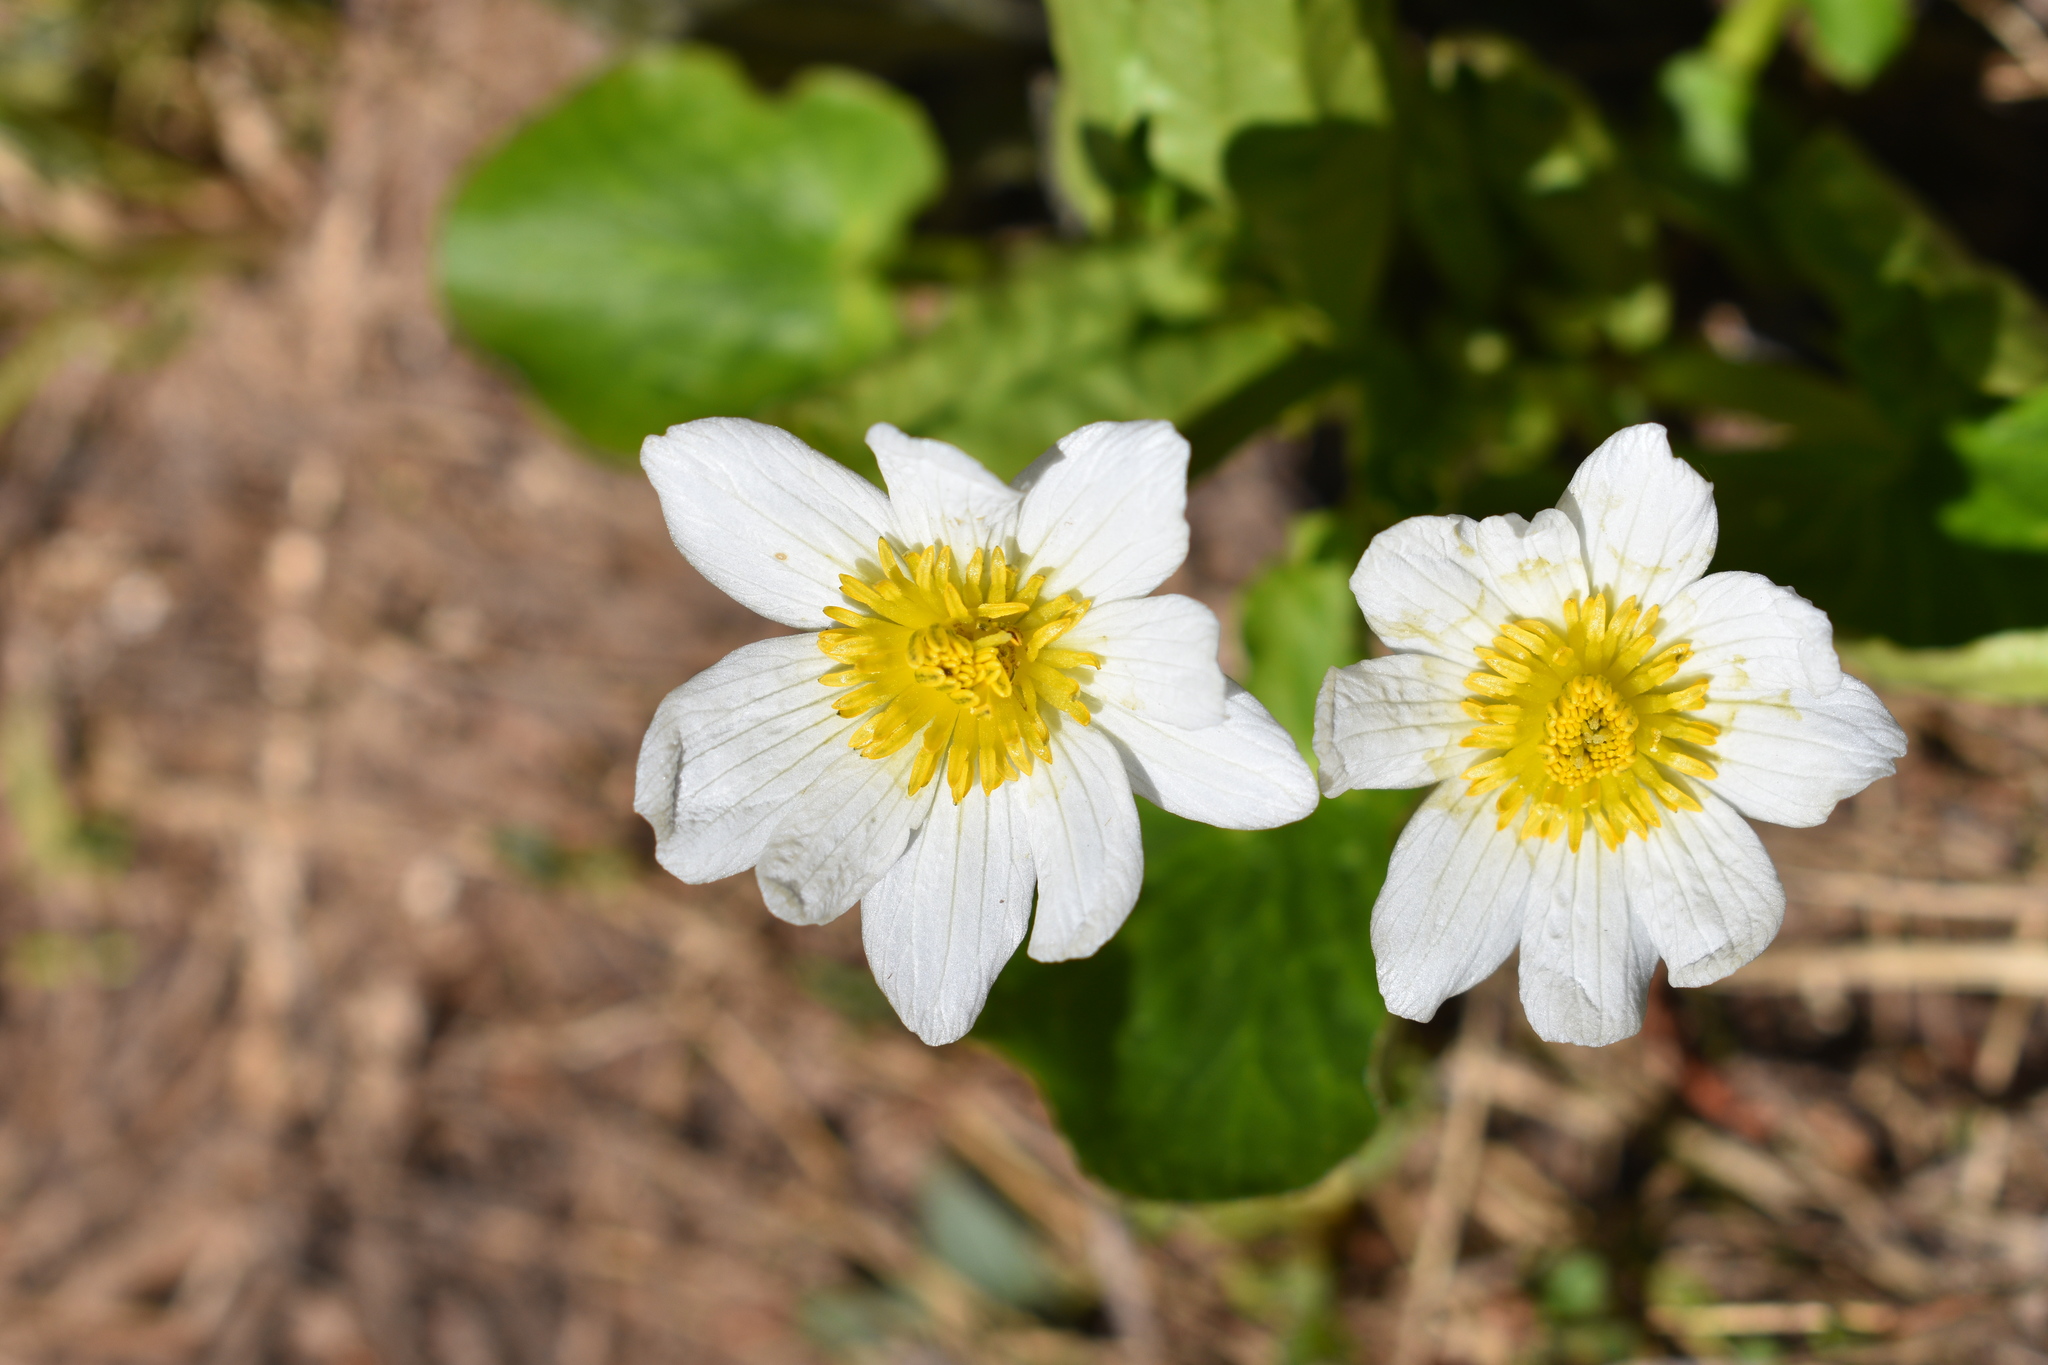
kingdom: Plantae
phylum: Tracheophyta
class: Magnoliopsida
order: Ranunculales
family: Ranunculaceae
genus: Caltha
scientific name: Caltha leptosepala
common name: Elkslip
